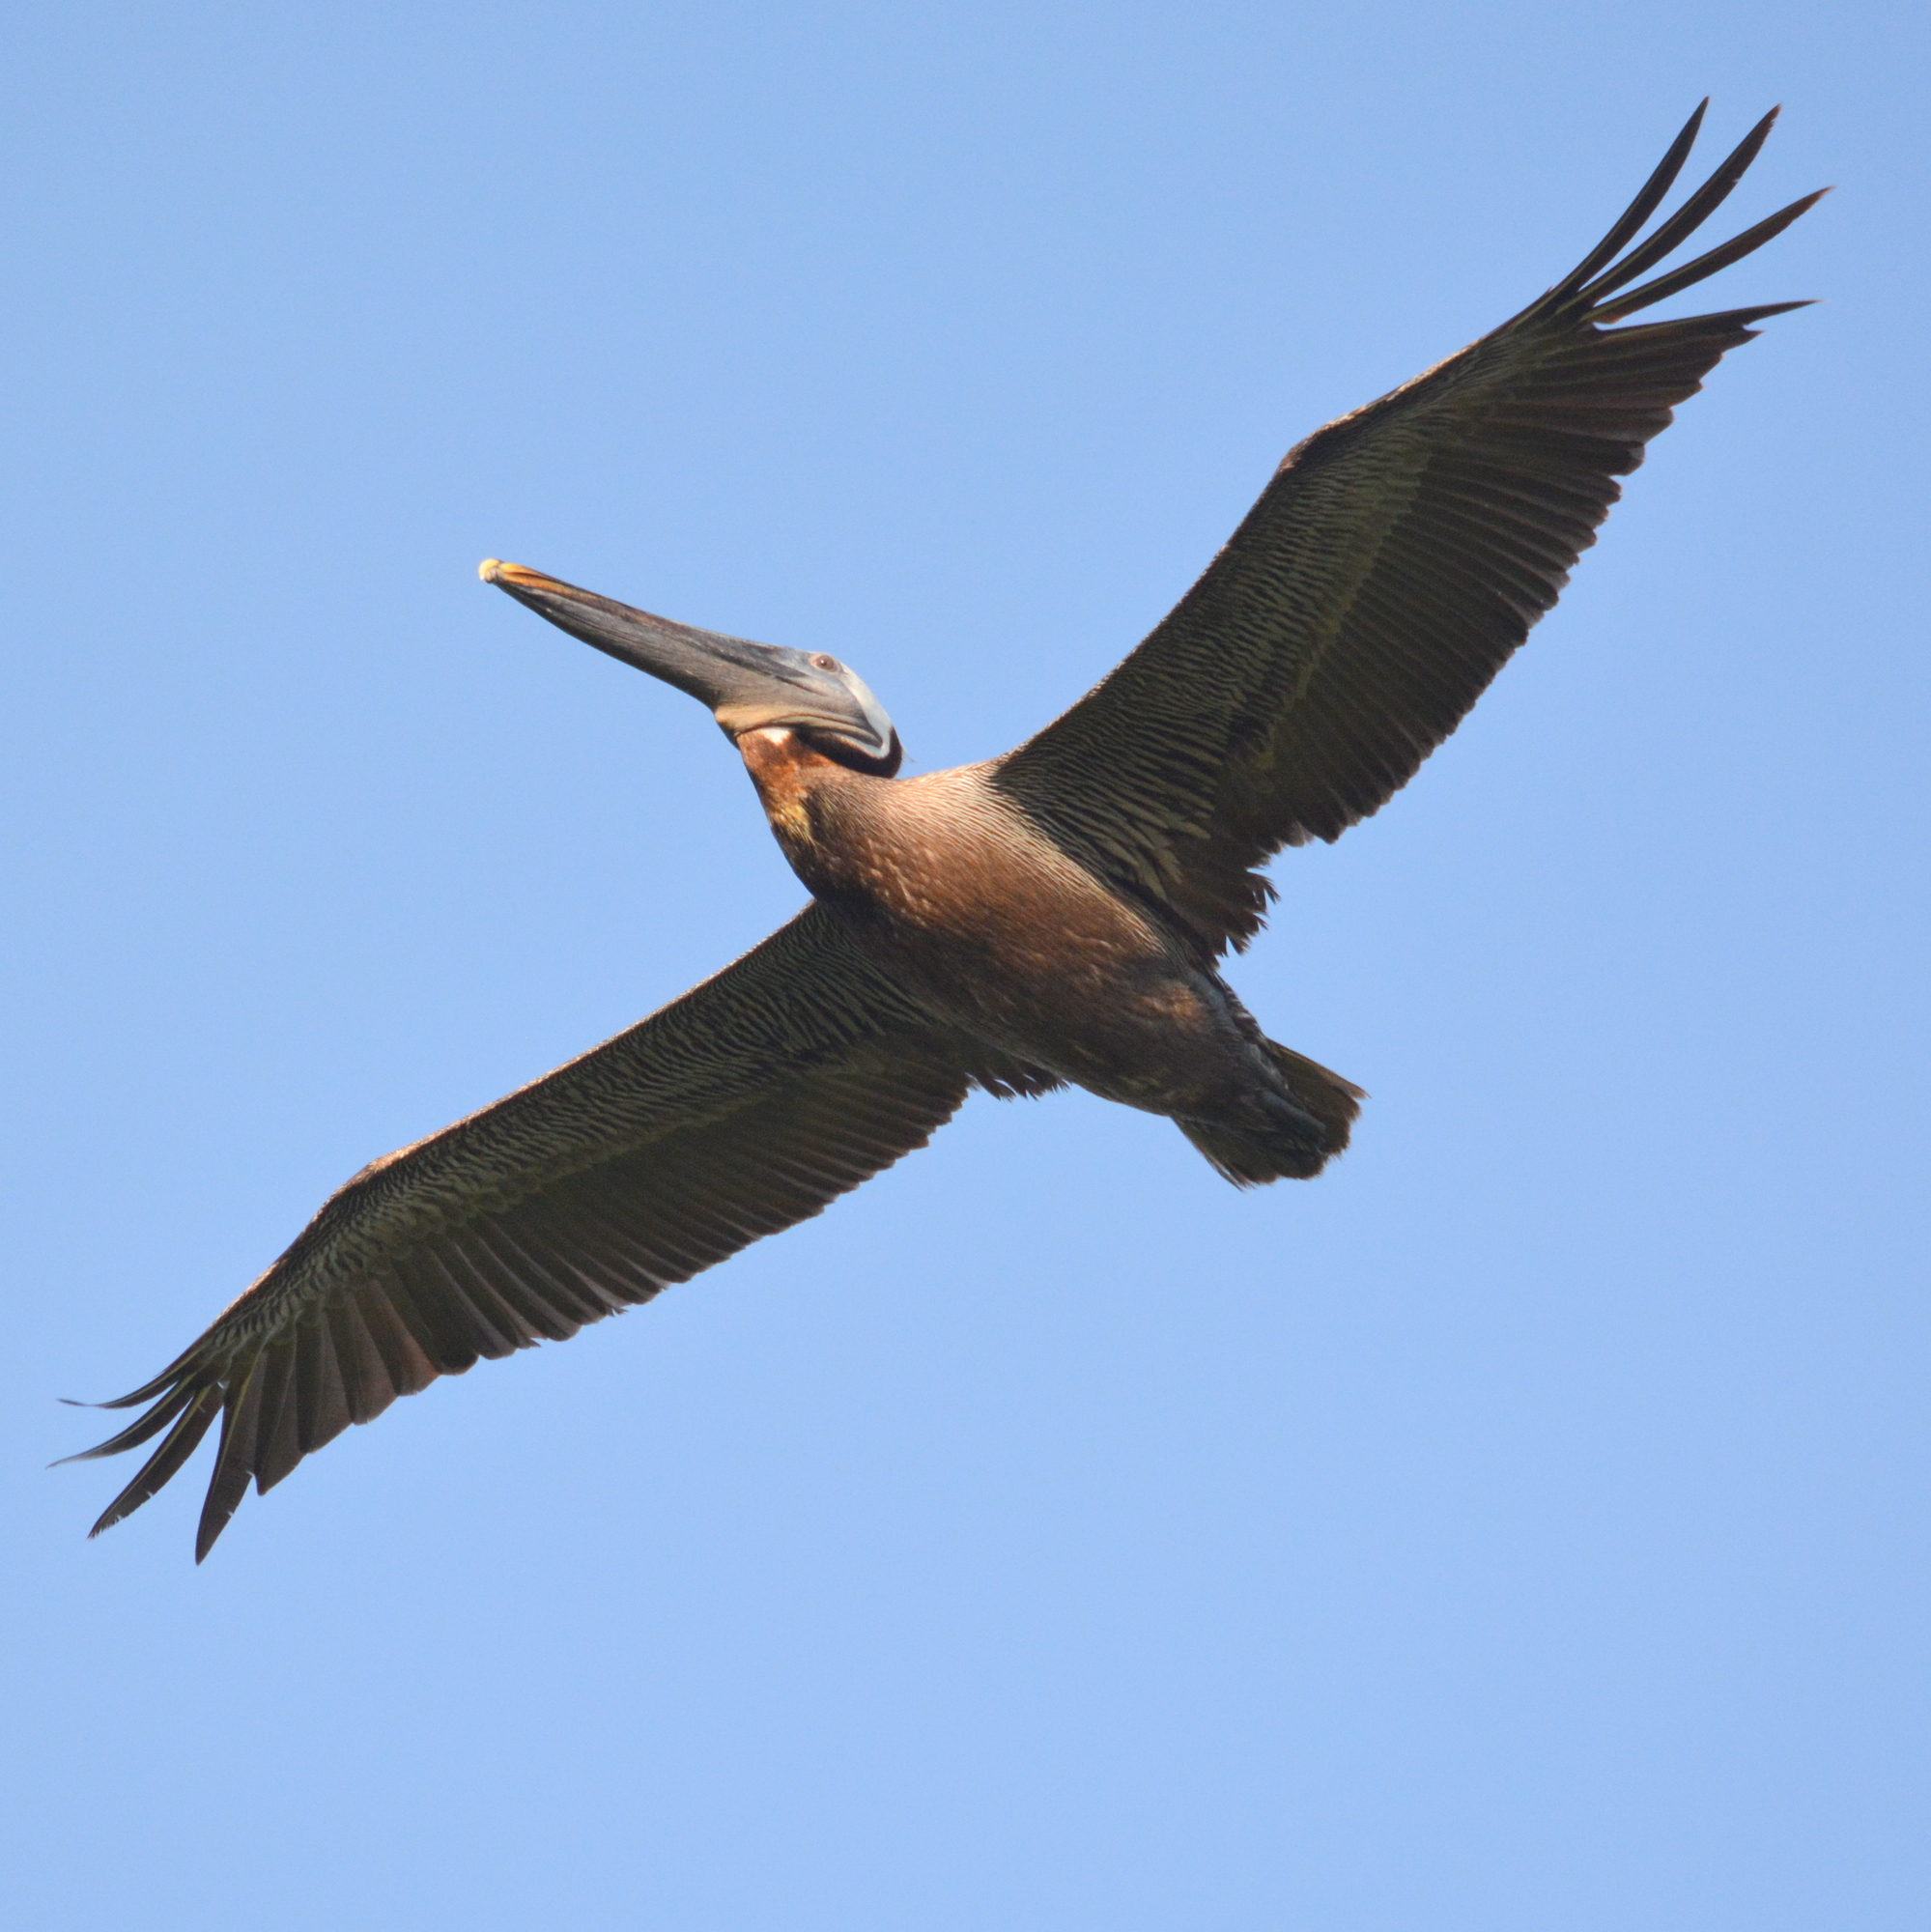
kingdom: Animalia
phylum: Chordata
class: Aves
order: Pelecaniformes
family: Pelecanidae
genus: Pelecanus
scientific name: Pelecanus occidentalis
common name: Brown pelican
